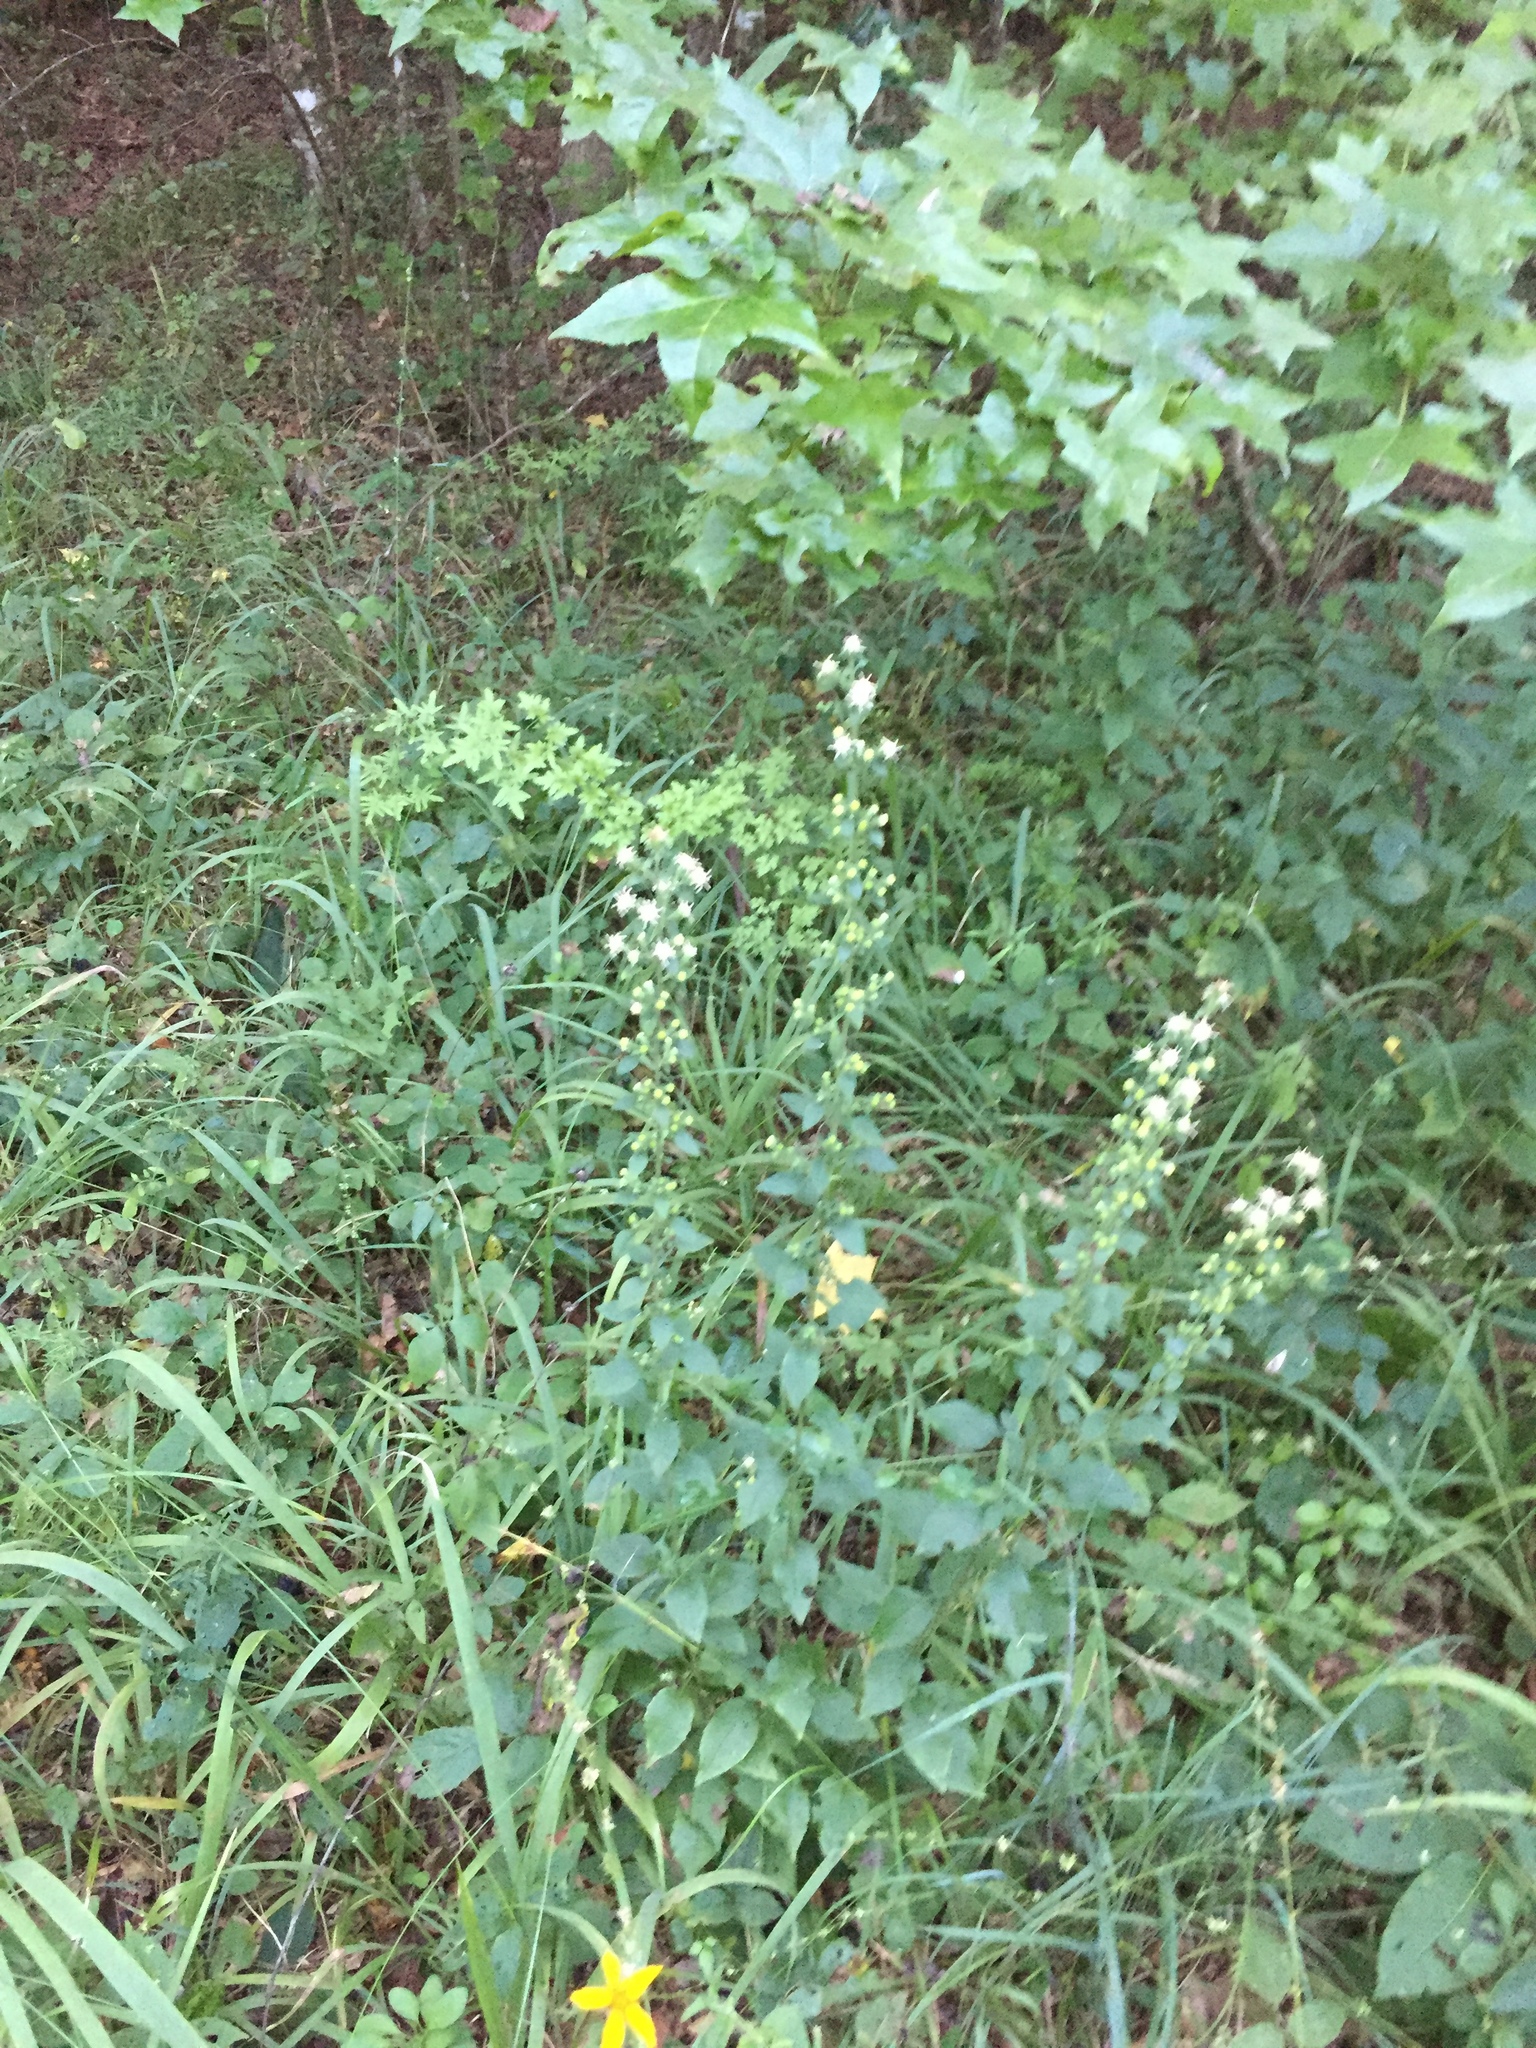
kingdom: Plantae
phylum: Tracheophyta
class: Magnoliopsida
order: Asterales
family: Asteraceae
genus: Solidago
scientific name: Solidago discoidea
